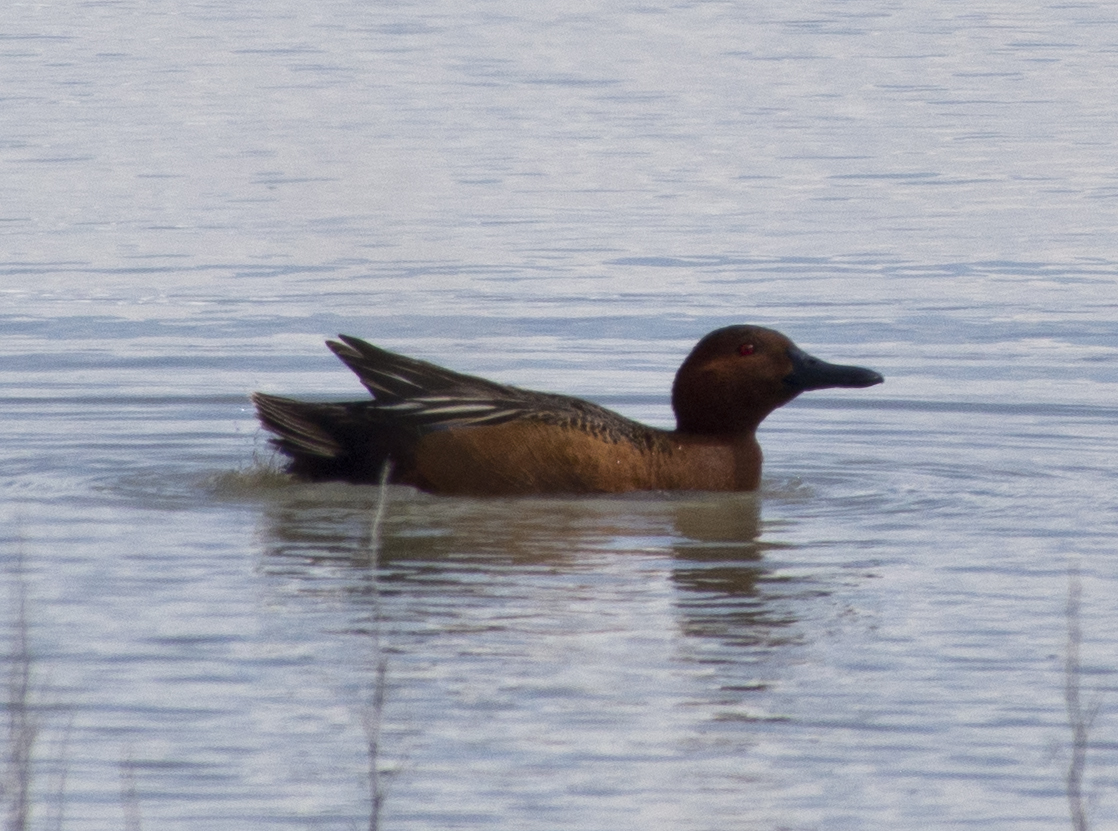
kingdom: Animalia
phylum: Chordata
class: Aves
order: Anseriformes
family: Anatidae
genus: Spatula
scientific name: Spatula cyanoptera
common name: Cinnamon teal
